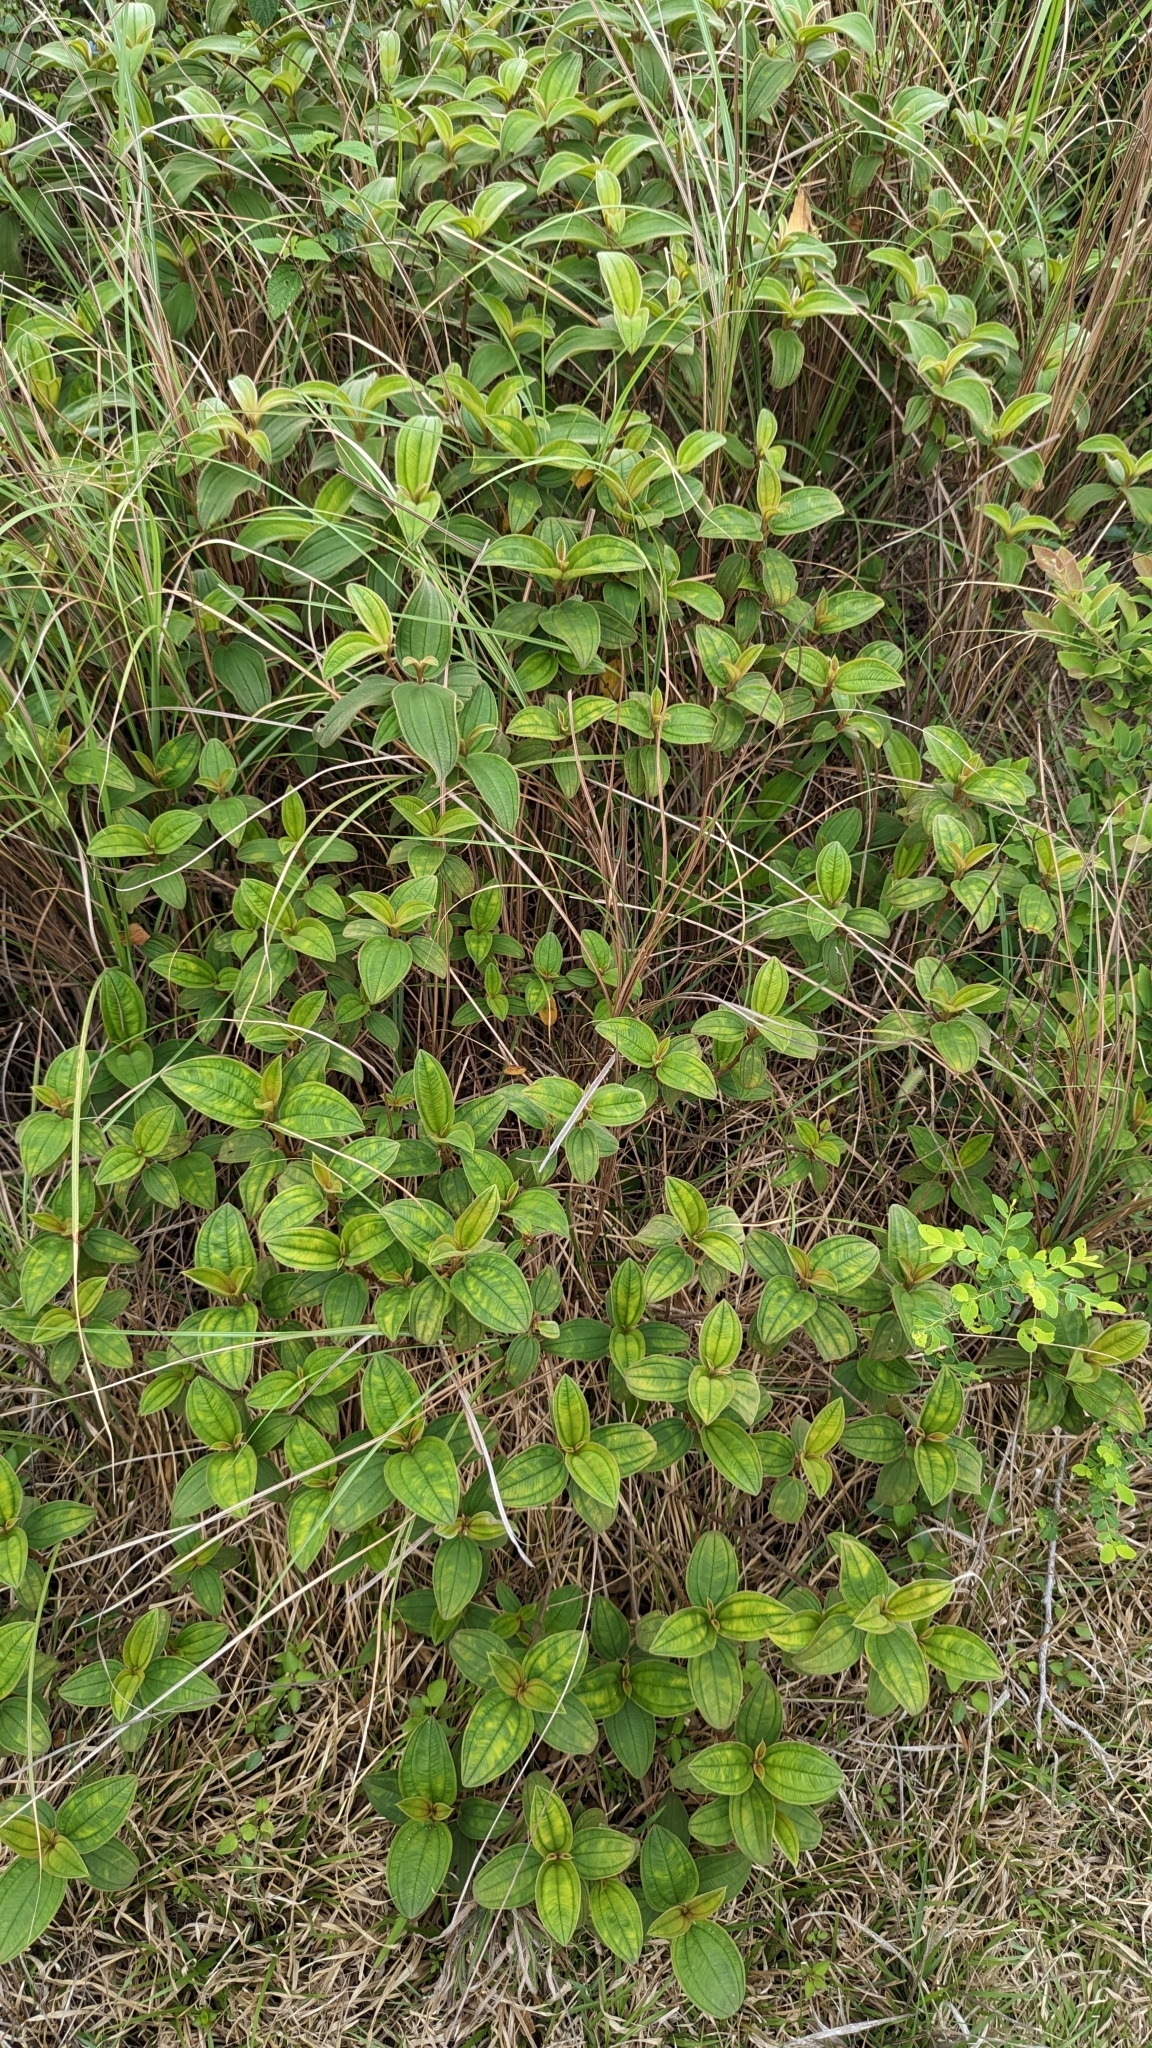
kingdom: Plantae
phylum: Tracheophyta
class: Magnoliopsida
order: Myrtales
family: Melastomataceae
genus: Melastoma
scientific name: Melastoma malabathricum
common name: Indian-rhododendron
